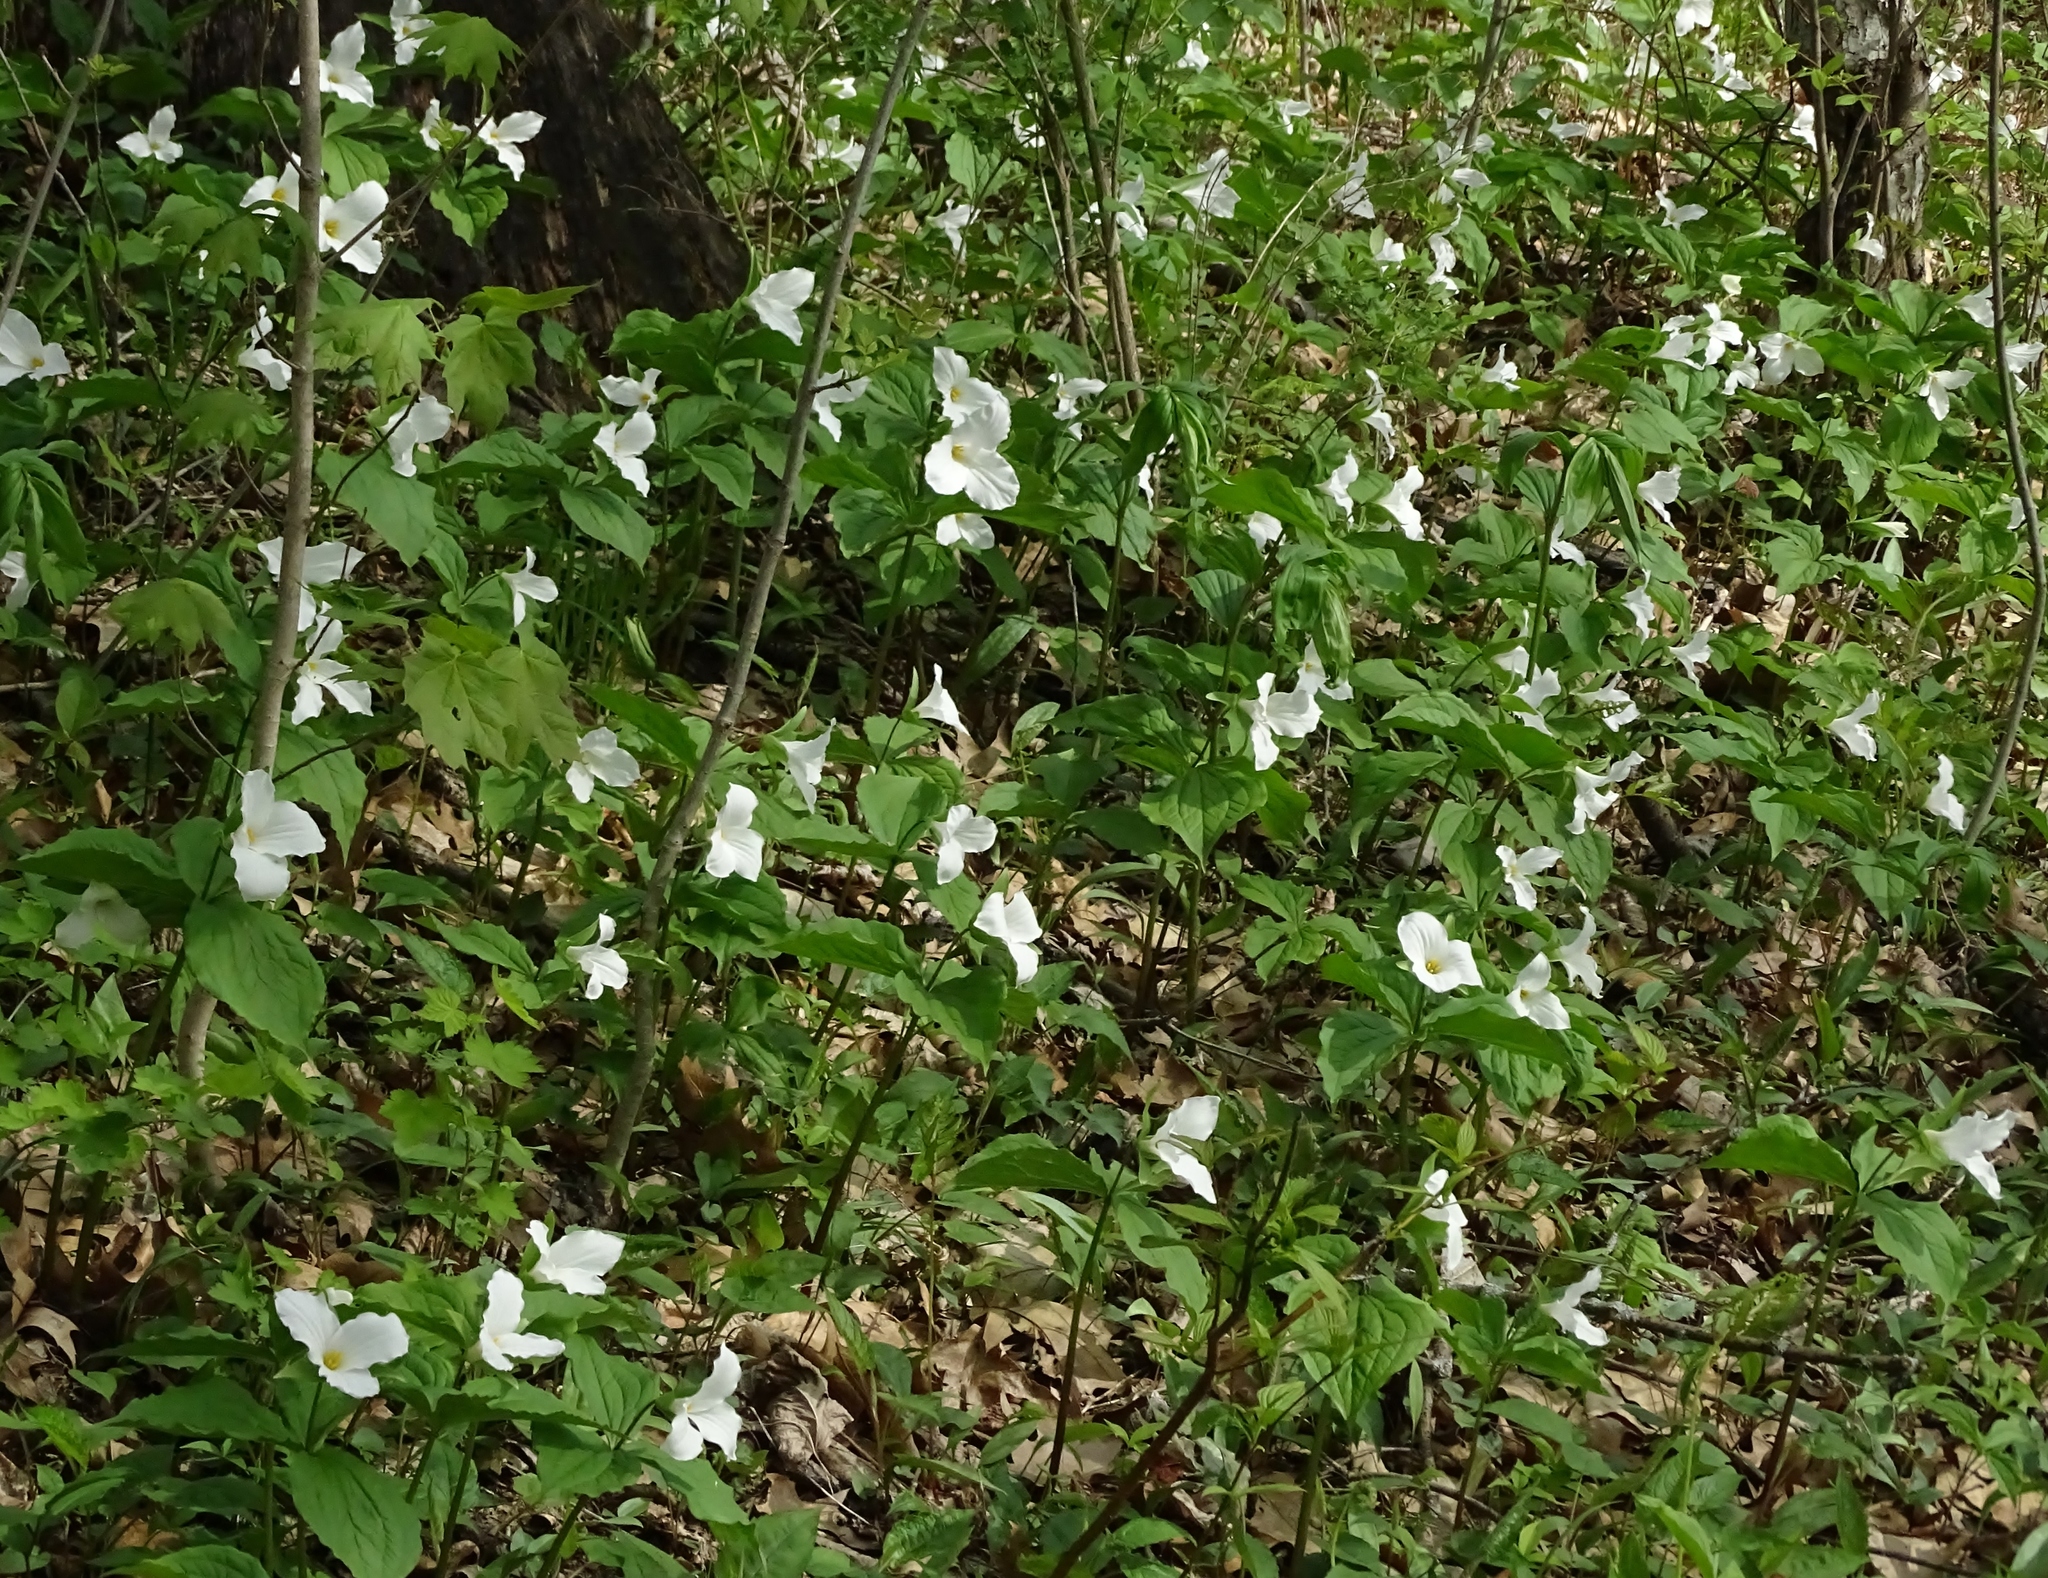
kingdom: Plantae
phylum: Tracheophyta
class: Liliopsida
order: Liliales
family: Melanthiaceae
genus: Trillium
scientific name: Trillium grandiflorum
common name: Great white trillium
